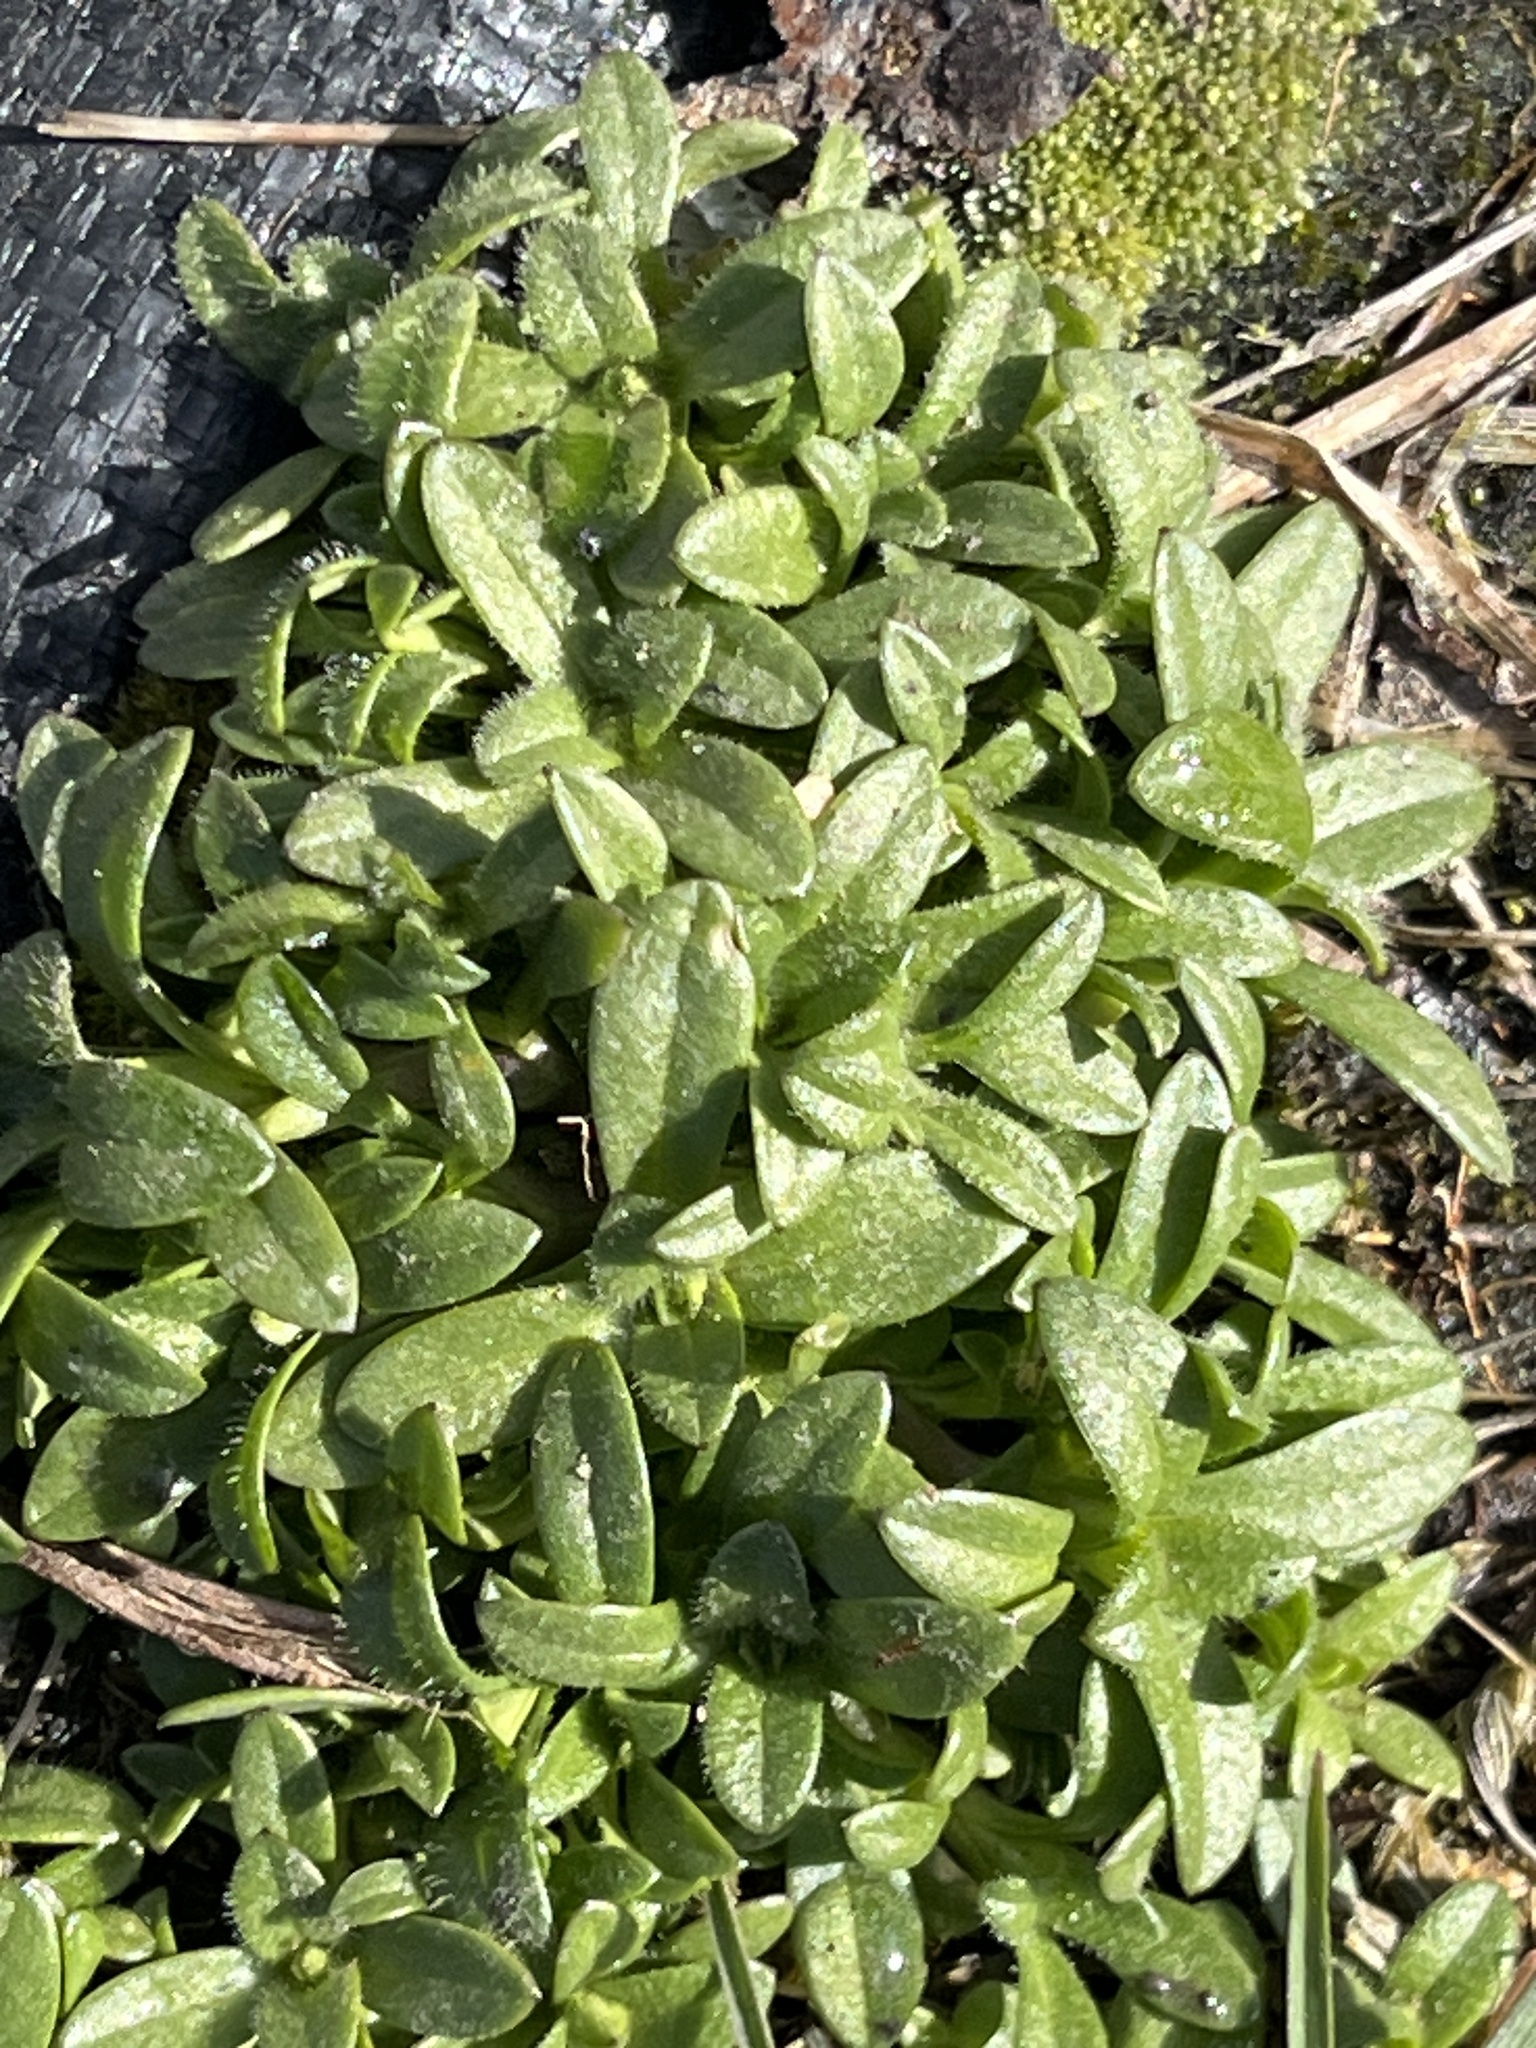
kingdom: Plantae
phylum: Tracheophyta
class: Magnoliopsida
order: Caryophyllales
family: Caryophyllaceae
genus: Cerastium
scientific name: Cerastium fontanum
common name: Common mouse-ear
